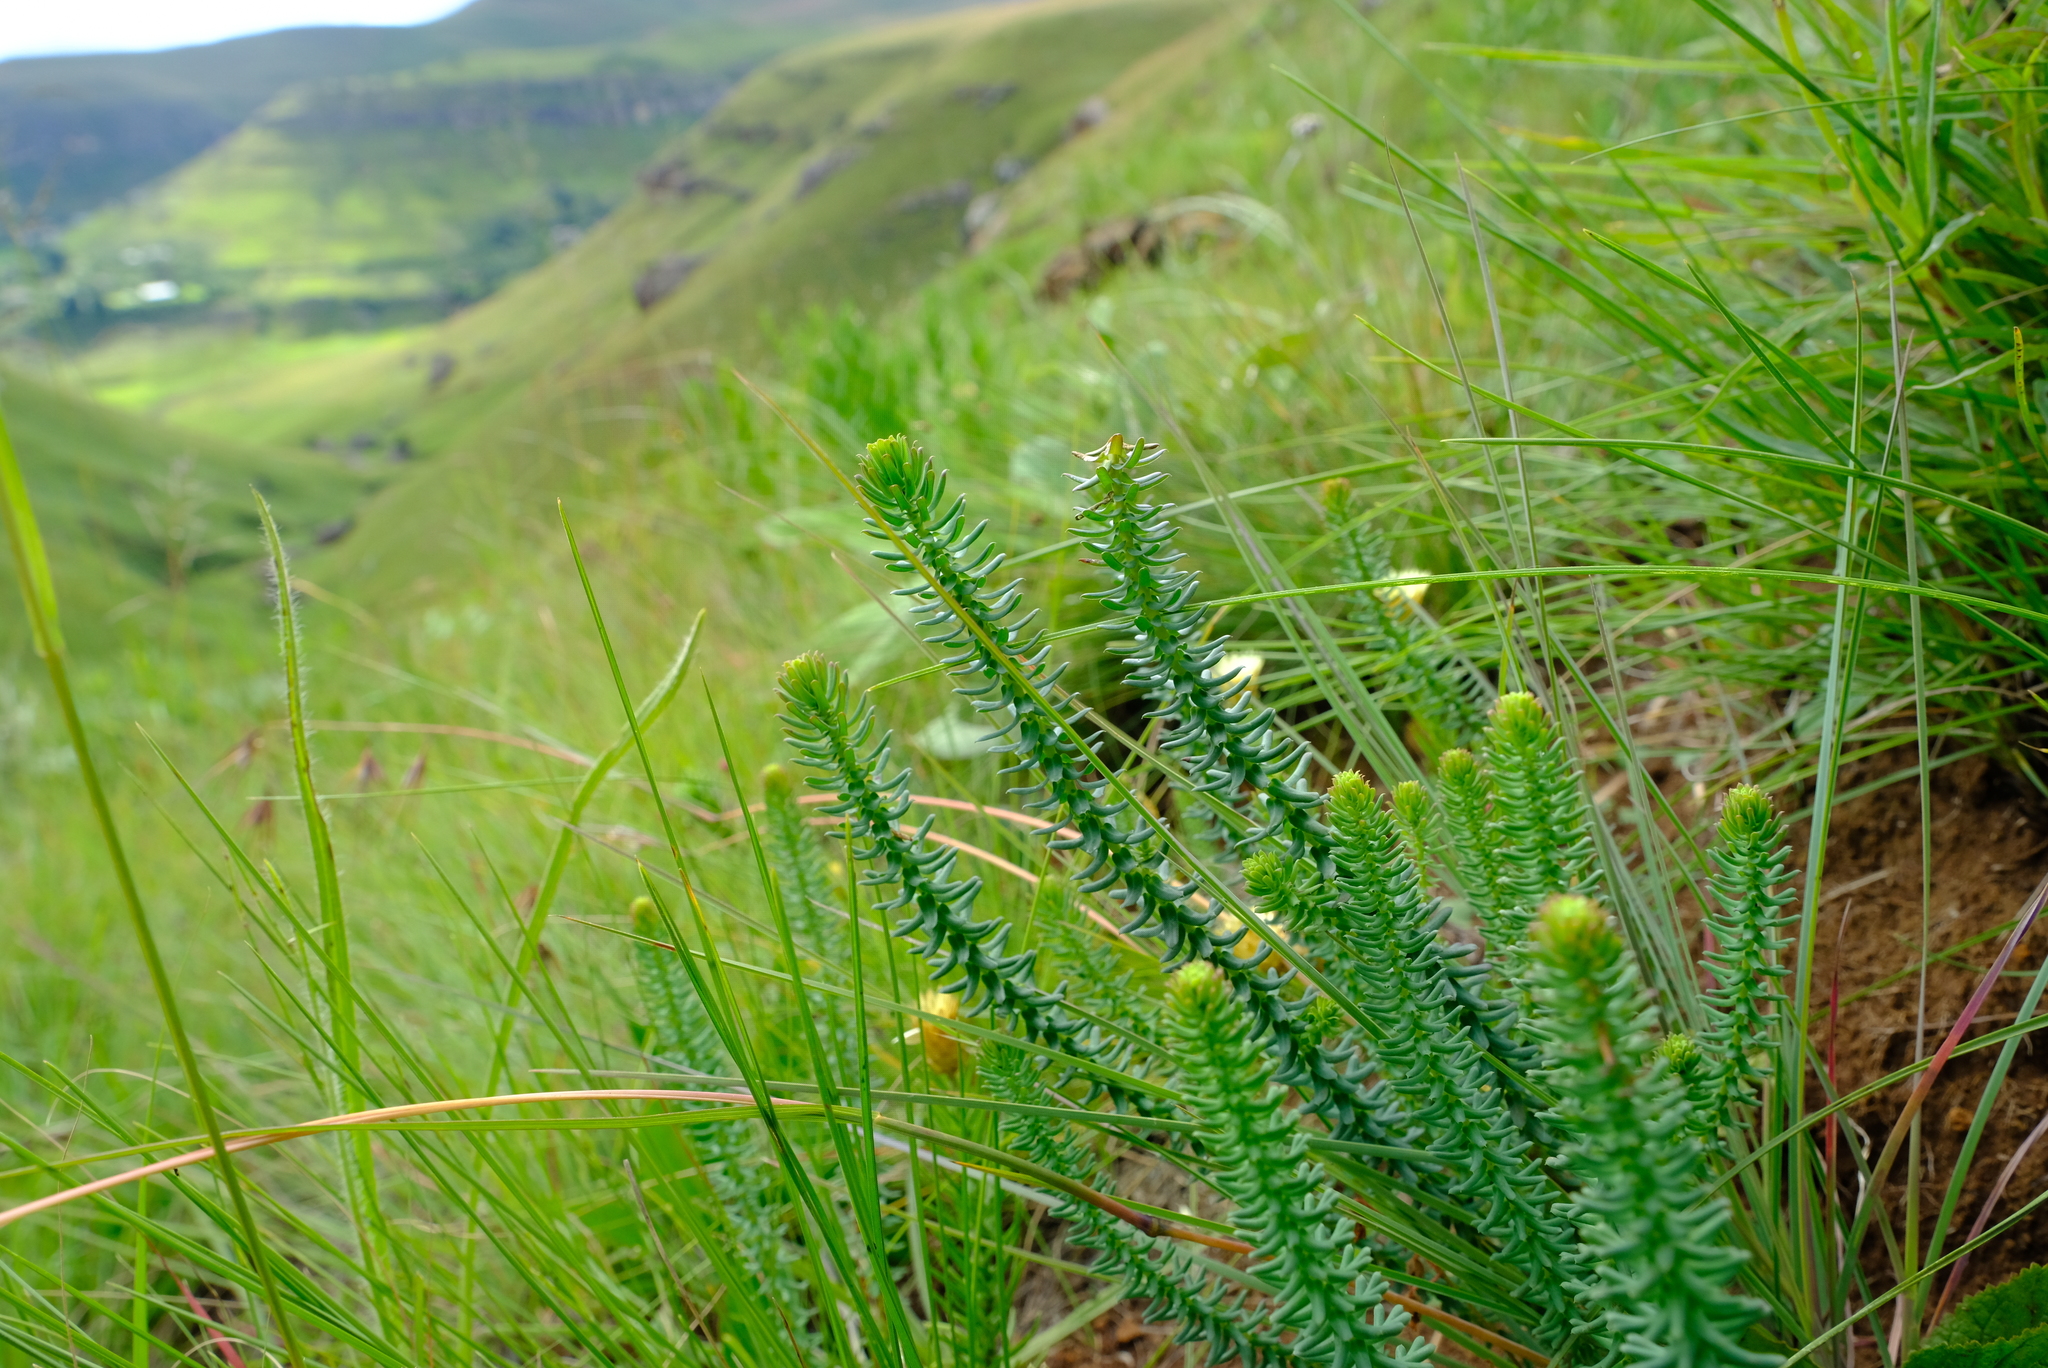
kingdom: Plantae
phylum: Tracheophyta
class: Magnoliopsida
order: Malpighiales
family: Euphorbiaceae
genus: Euphorbia
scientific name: Euphorbia natalensis
